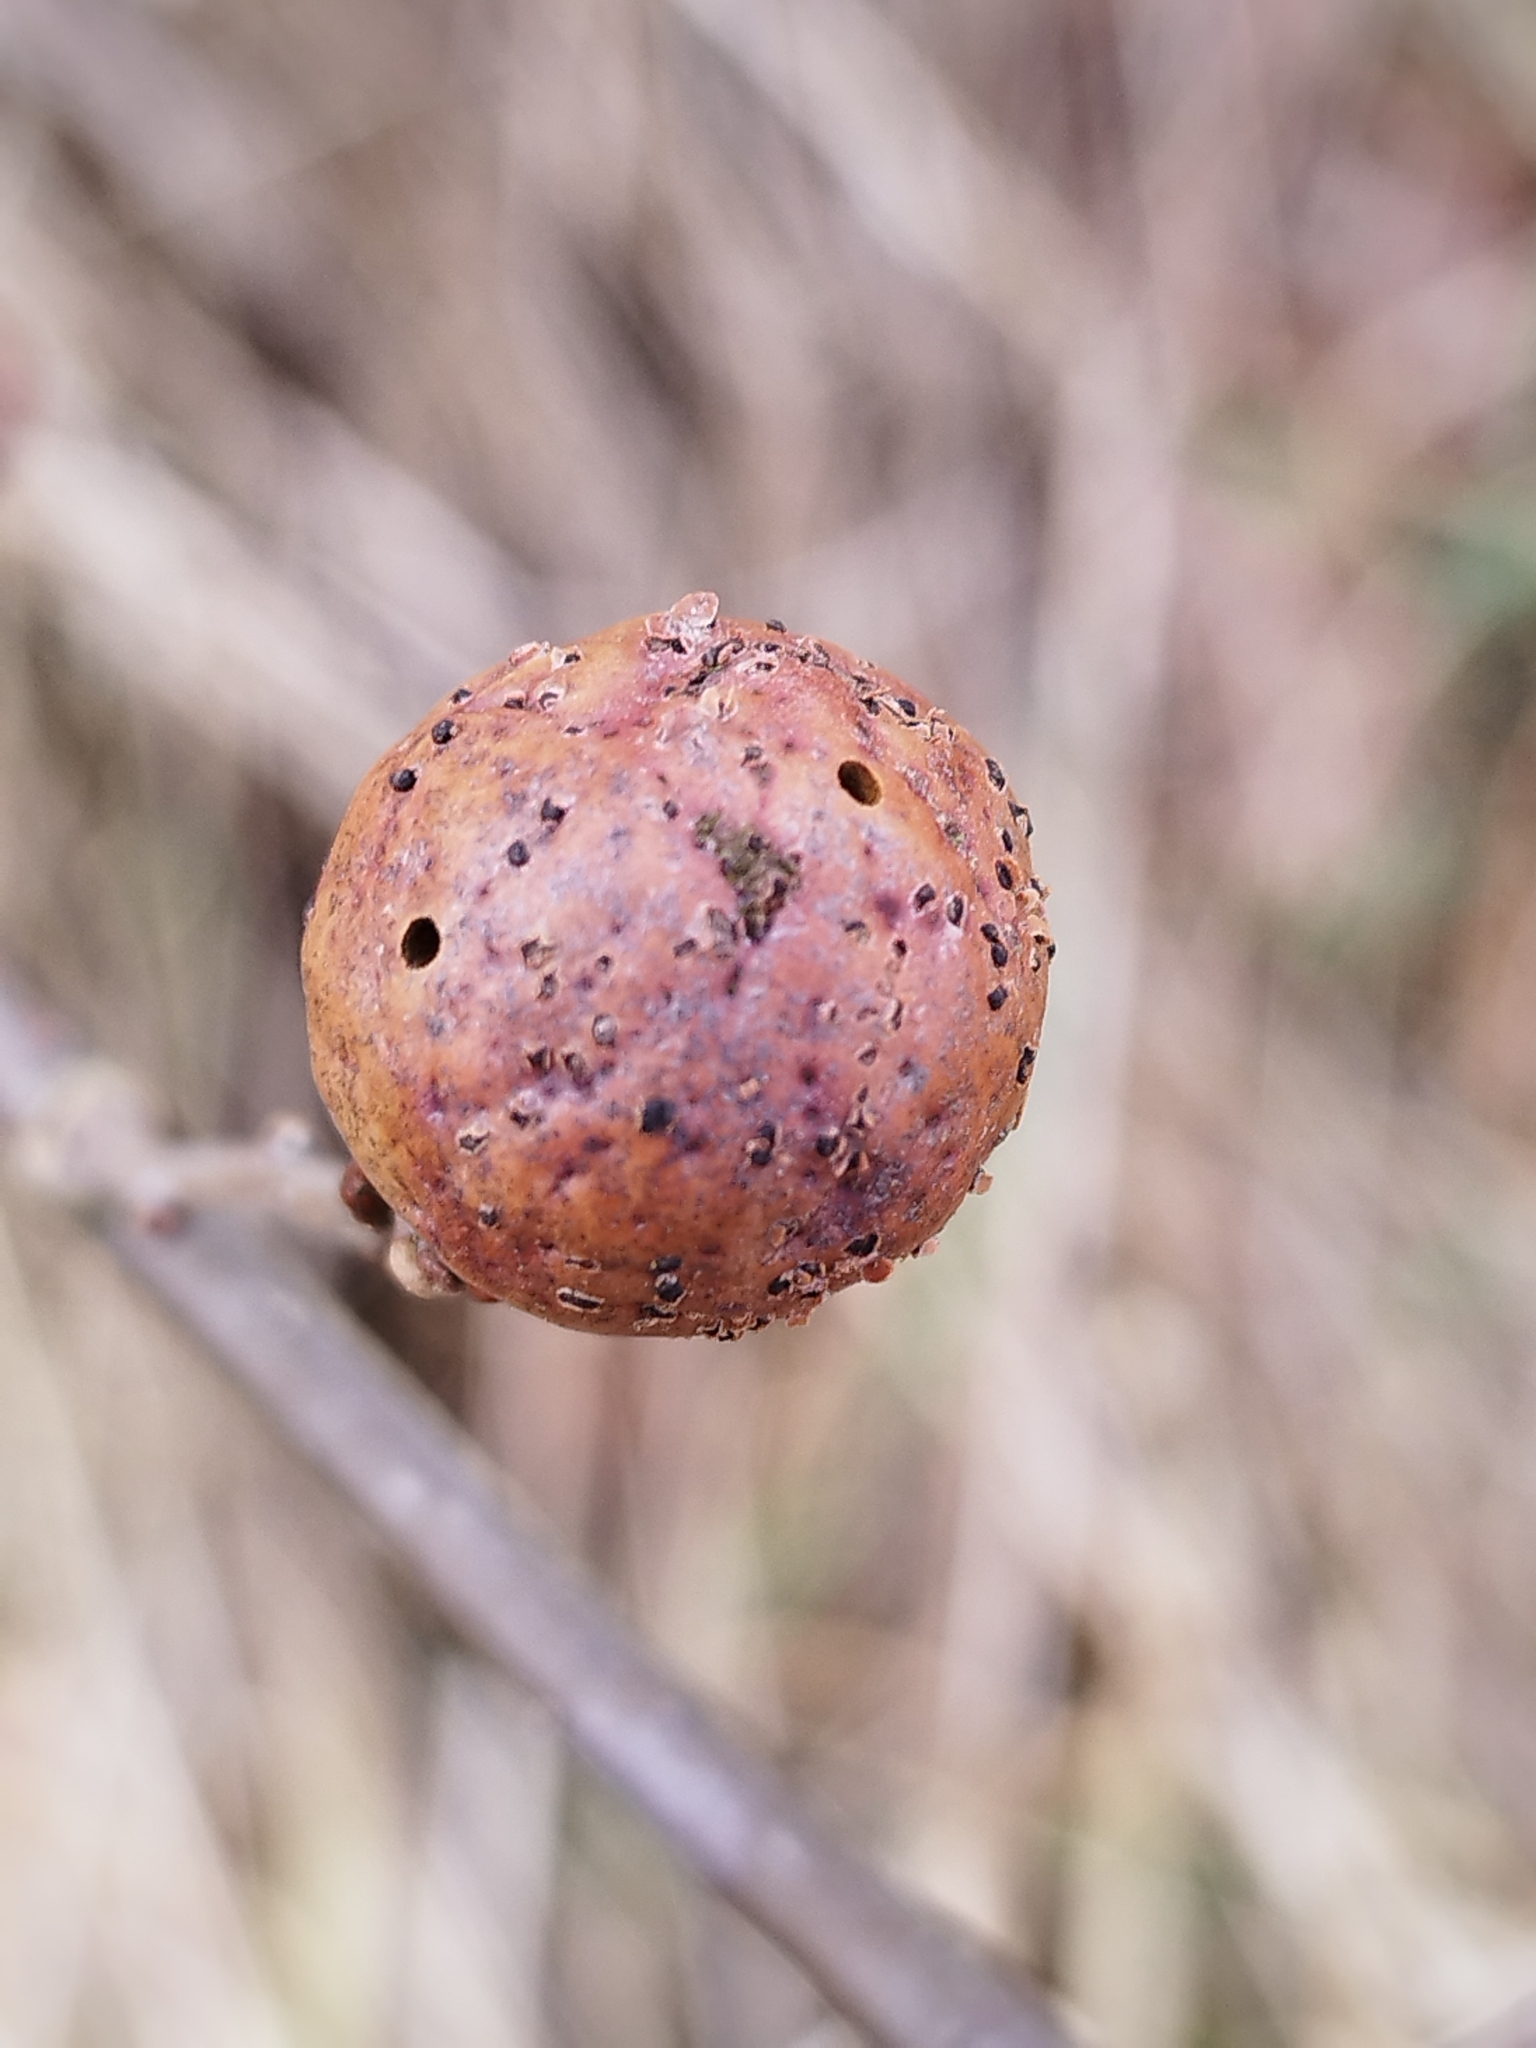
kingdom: Animalia
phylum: Arthropoda
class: Insecta
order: Hymenoptera
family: Cynipidae
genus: Andricus
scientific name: Andricus kollari
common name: Marble gall
